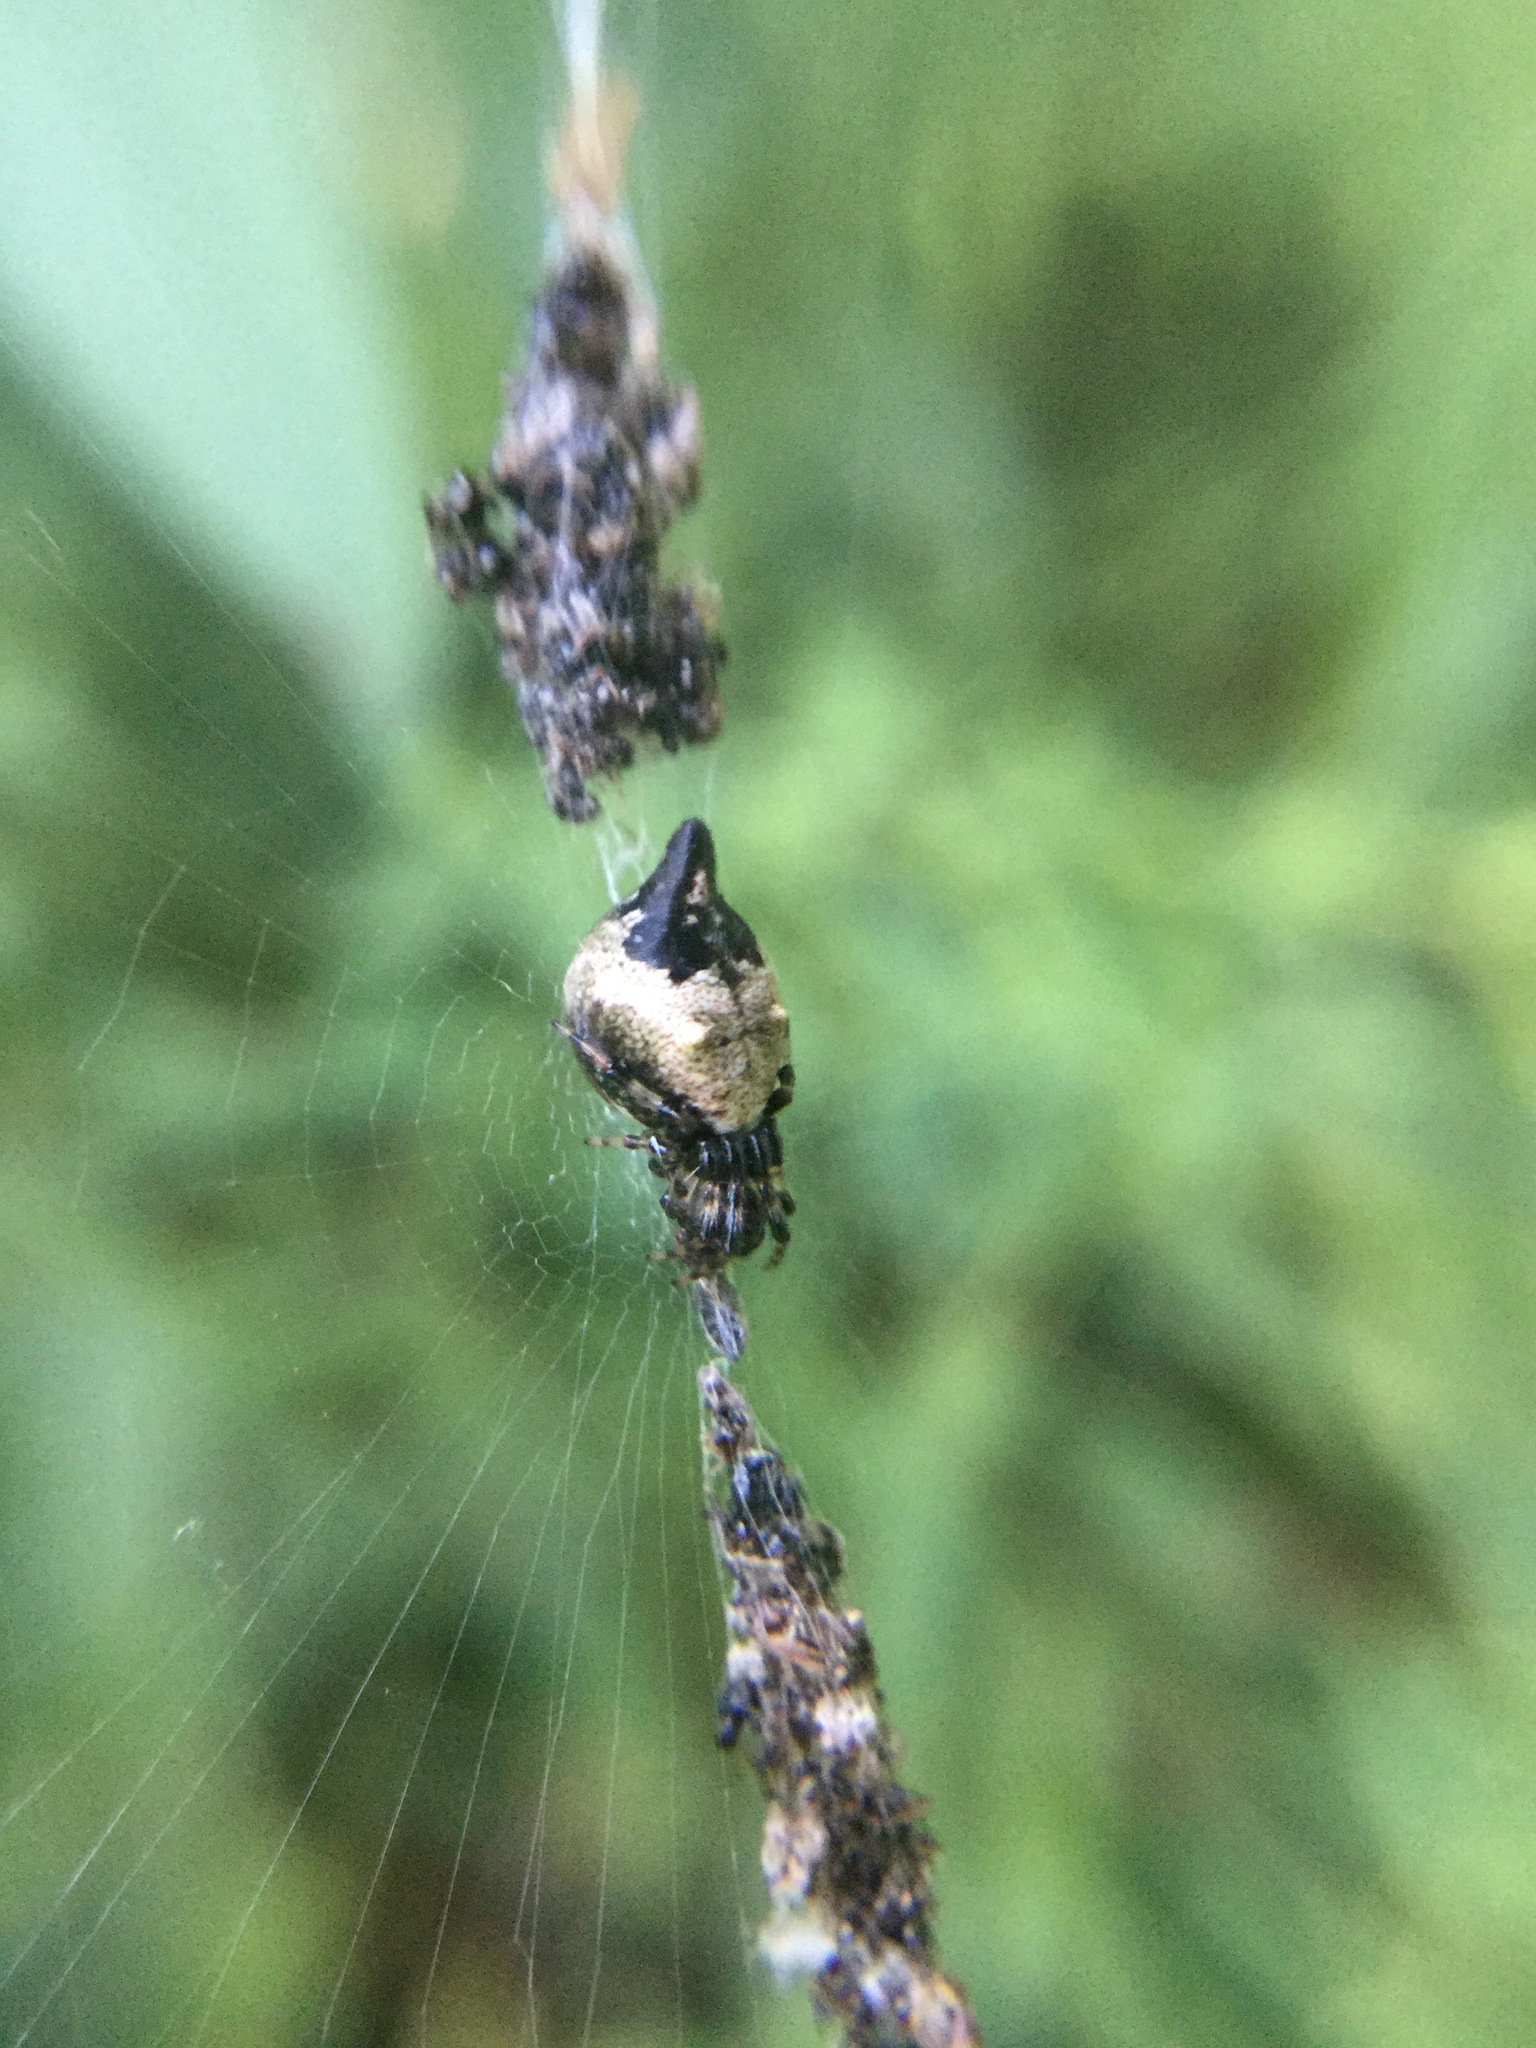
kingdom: Animalia
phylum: Arthropoda
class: Arachnida
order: Araneae
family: Araneidae
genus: Cyclosa
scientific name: Cyclosa turbinata
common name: Orb weavers
